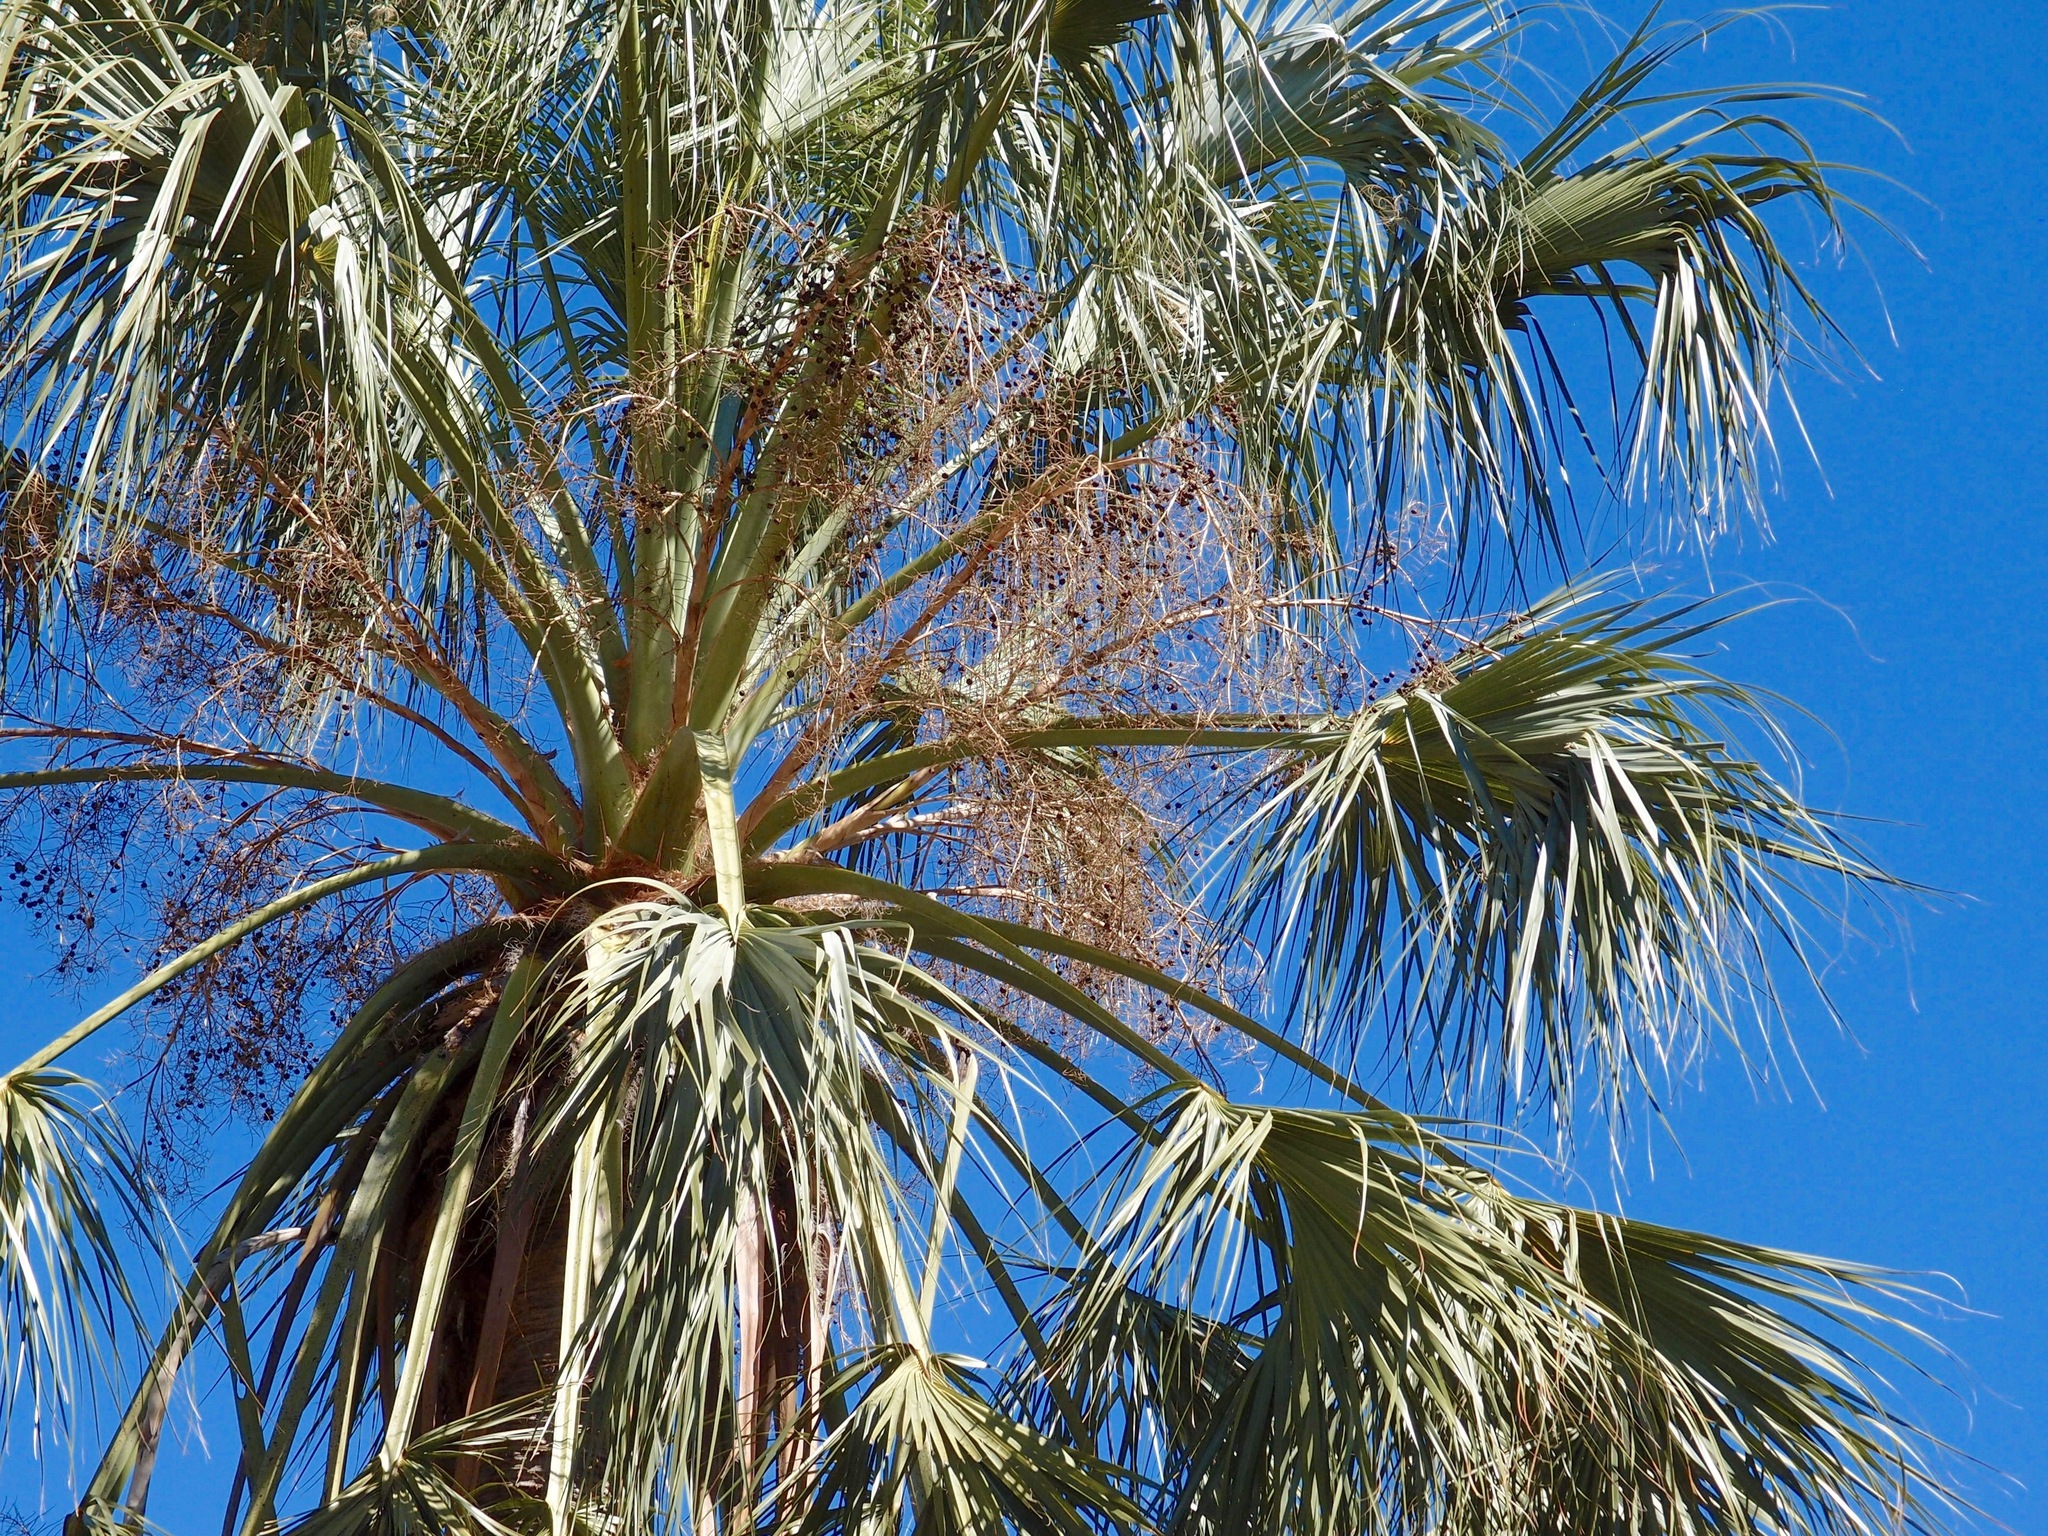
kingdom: Plantae
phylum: Tracheophyta
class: Liliopsida
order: Arecales
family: Arecaceae
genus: Sabal
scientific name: Sabal uresana
